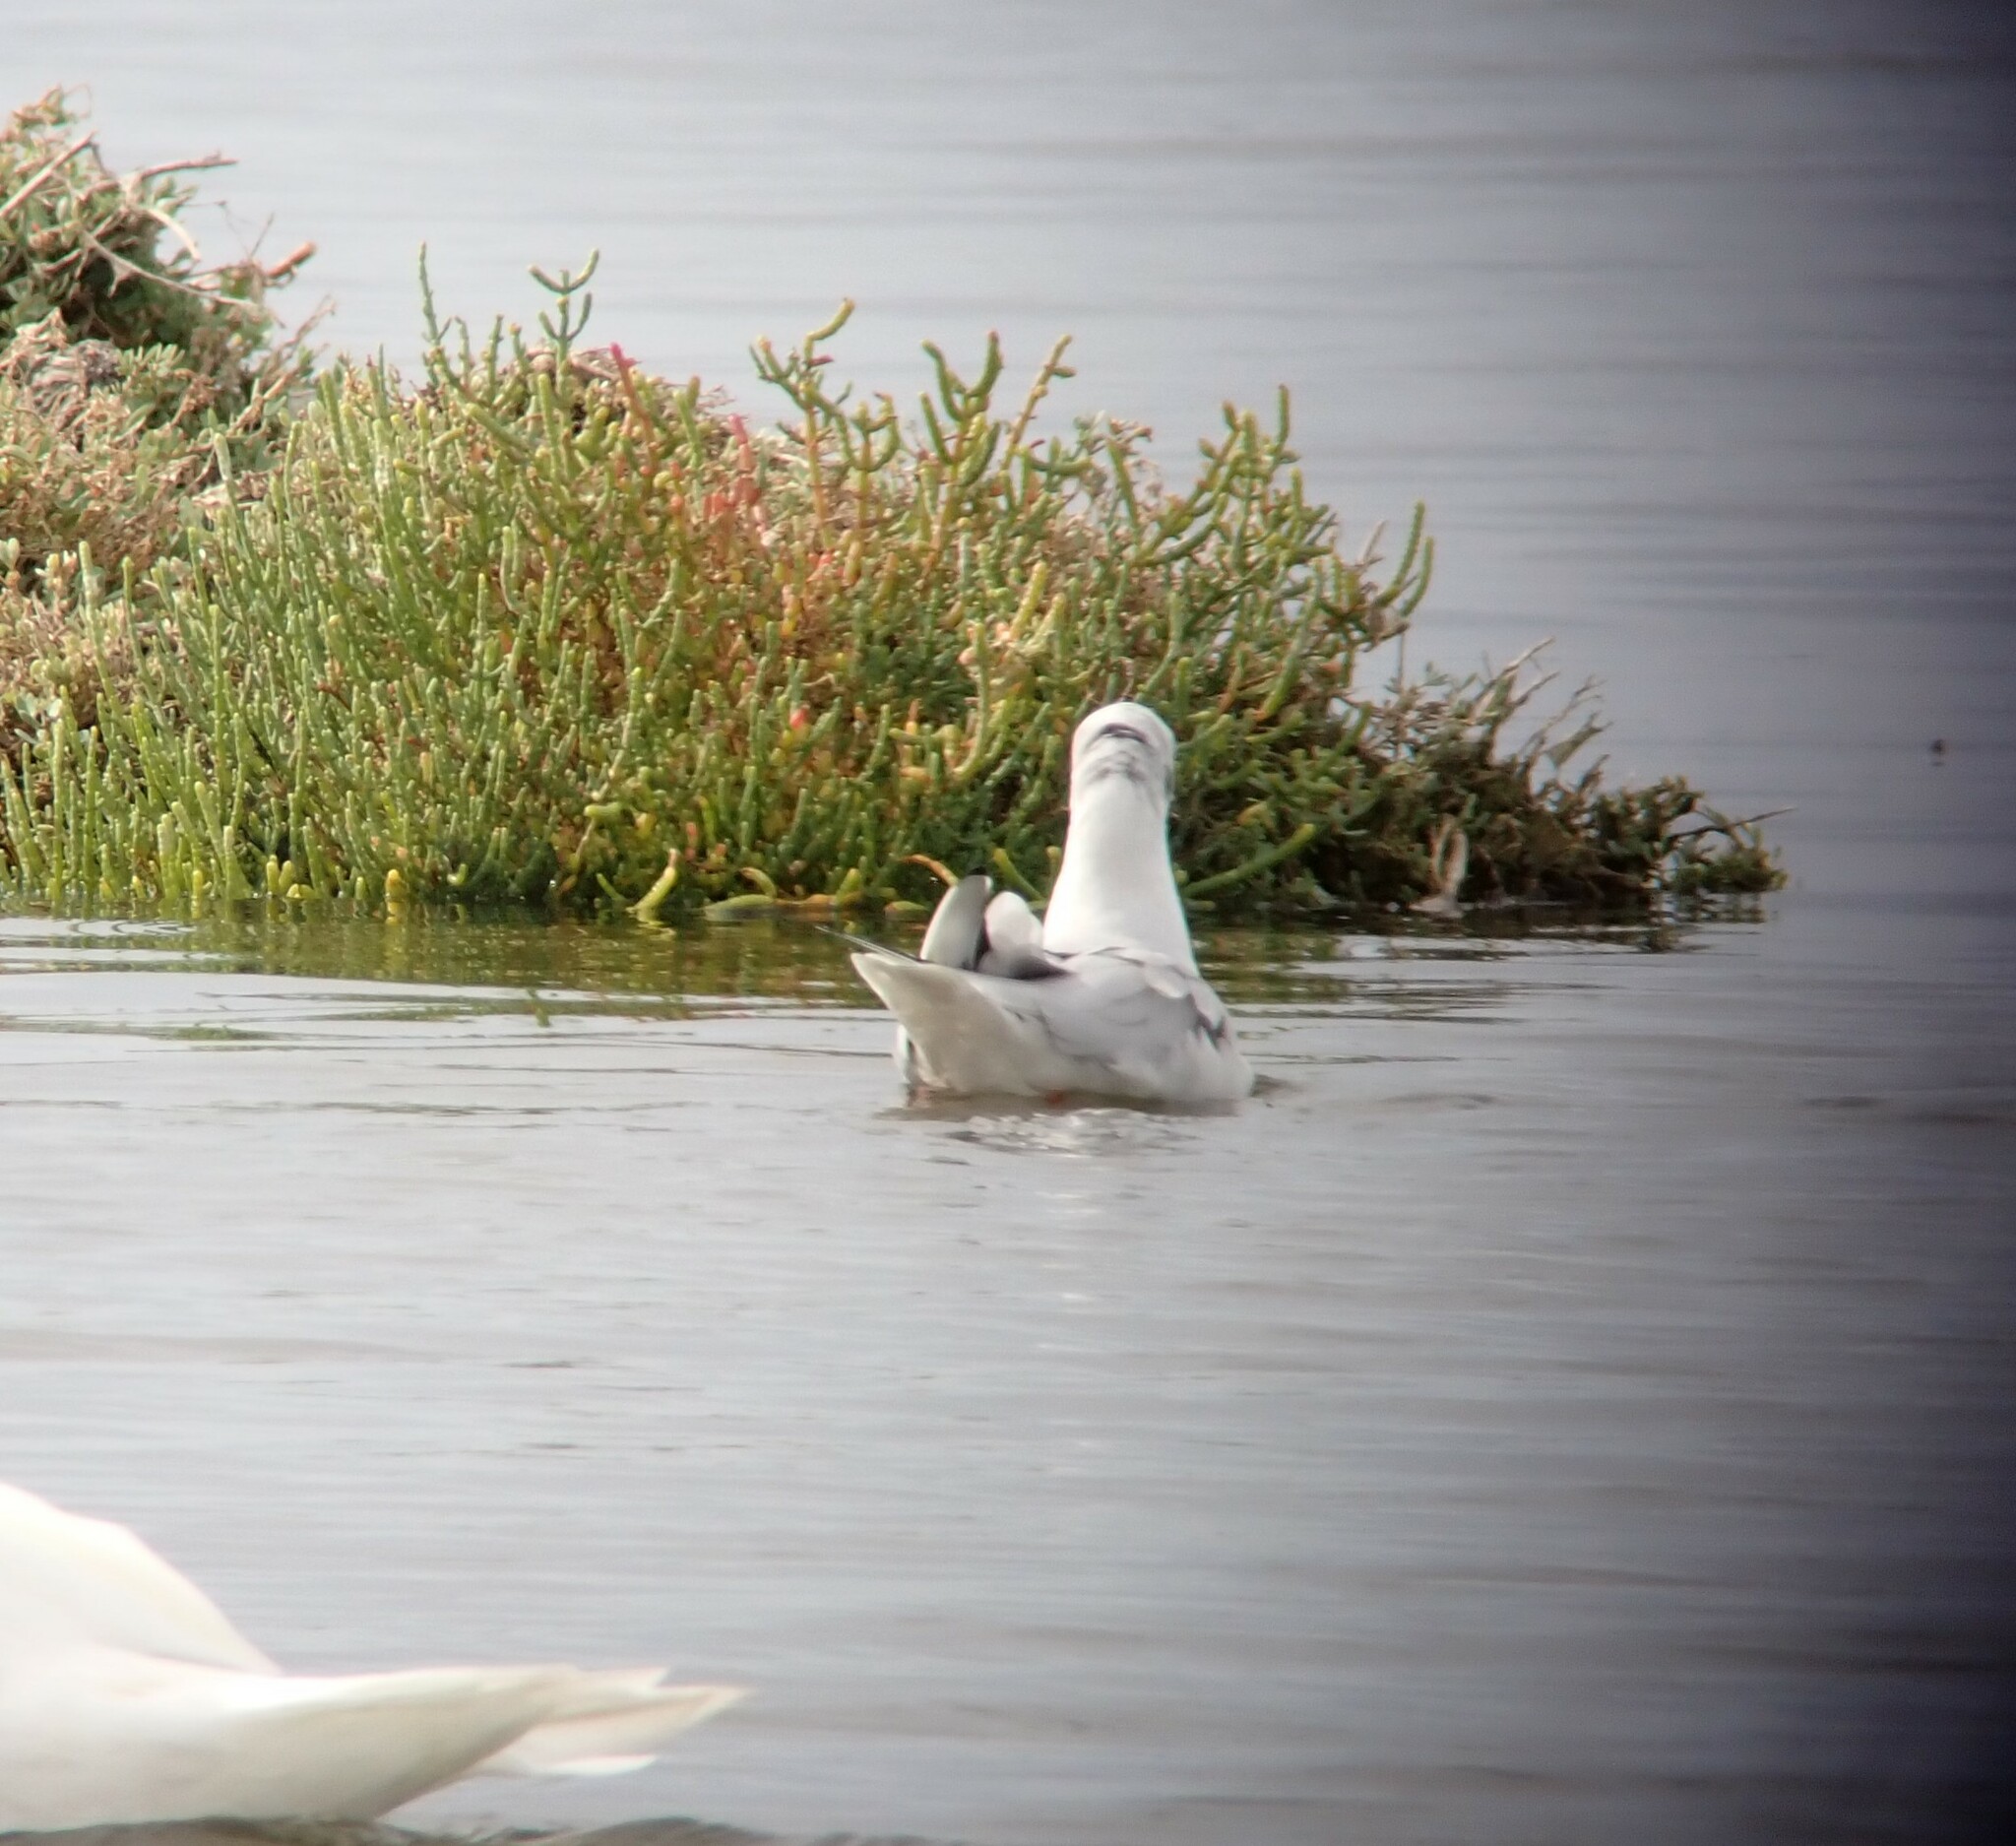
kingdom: Animalia
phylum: Chordata
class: Aves
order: Charadriiformes
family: Laridae
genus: Chroicocephalus
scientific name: Chroicocephalus ridibundus
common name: Black-headed gull
